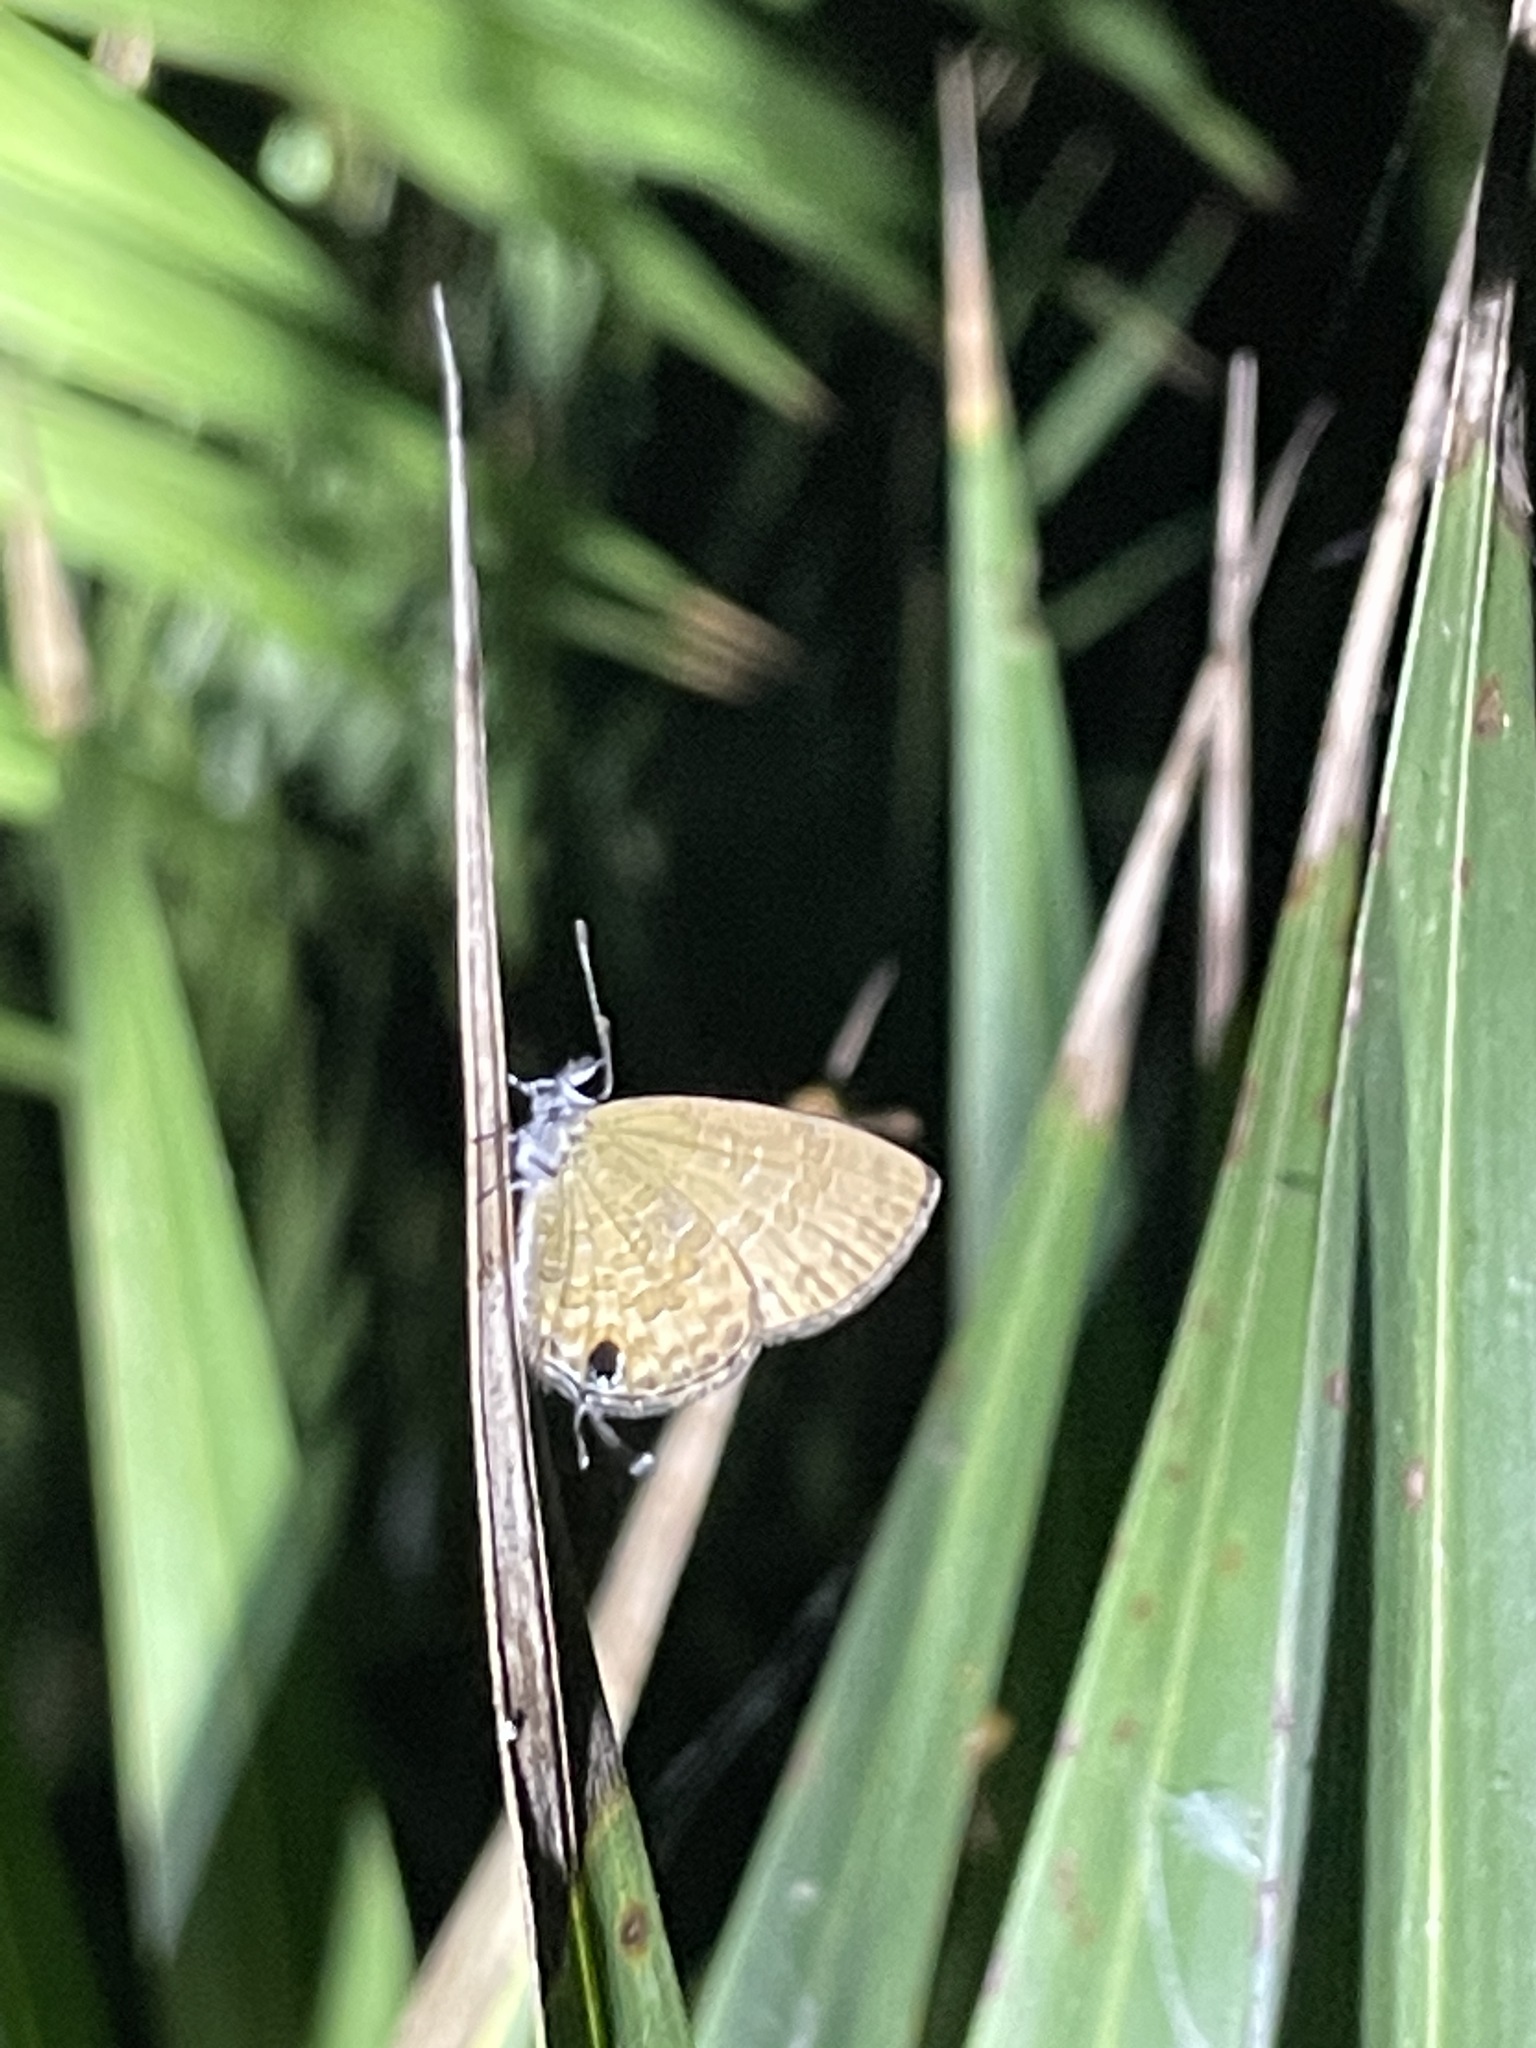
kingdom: Animalia
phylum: Arthropoda
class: Insecta
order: Lepidoptera
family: Lycaenidae
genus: Prosotas
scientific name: Prosotas nora
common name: Common line blue
